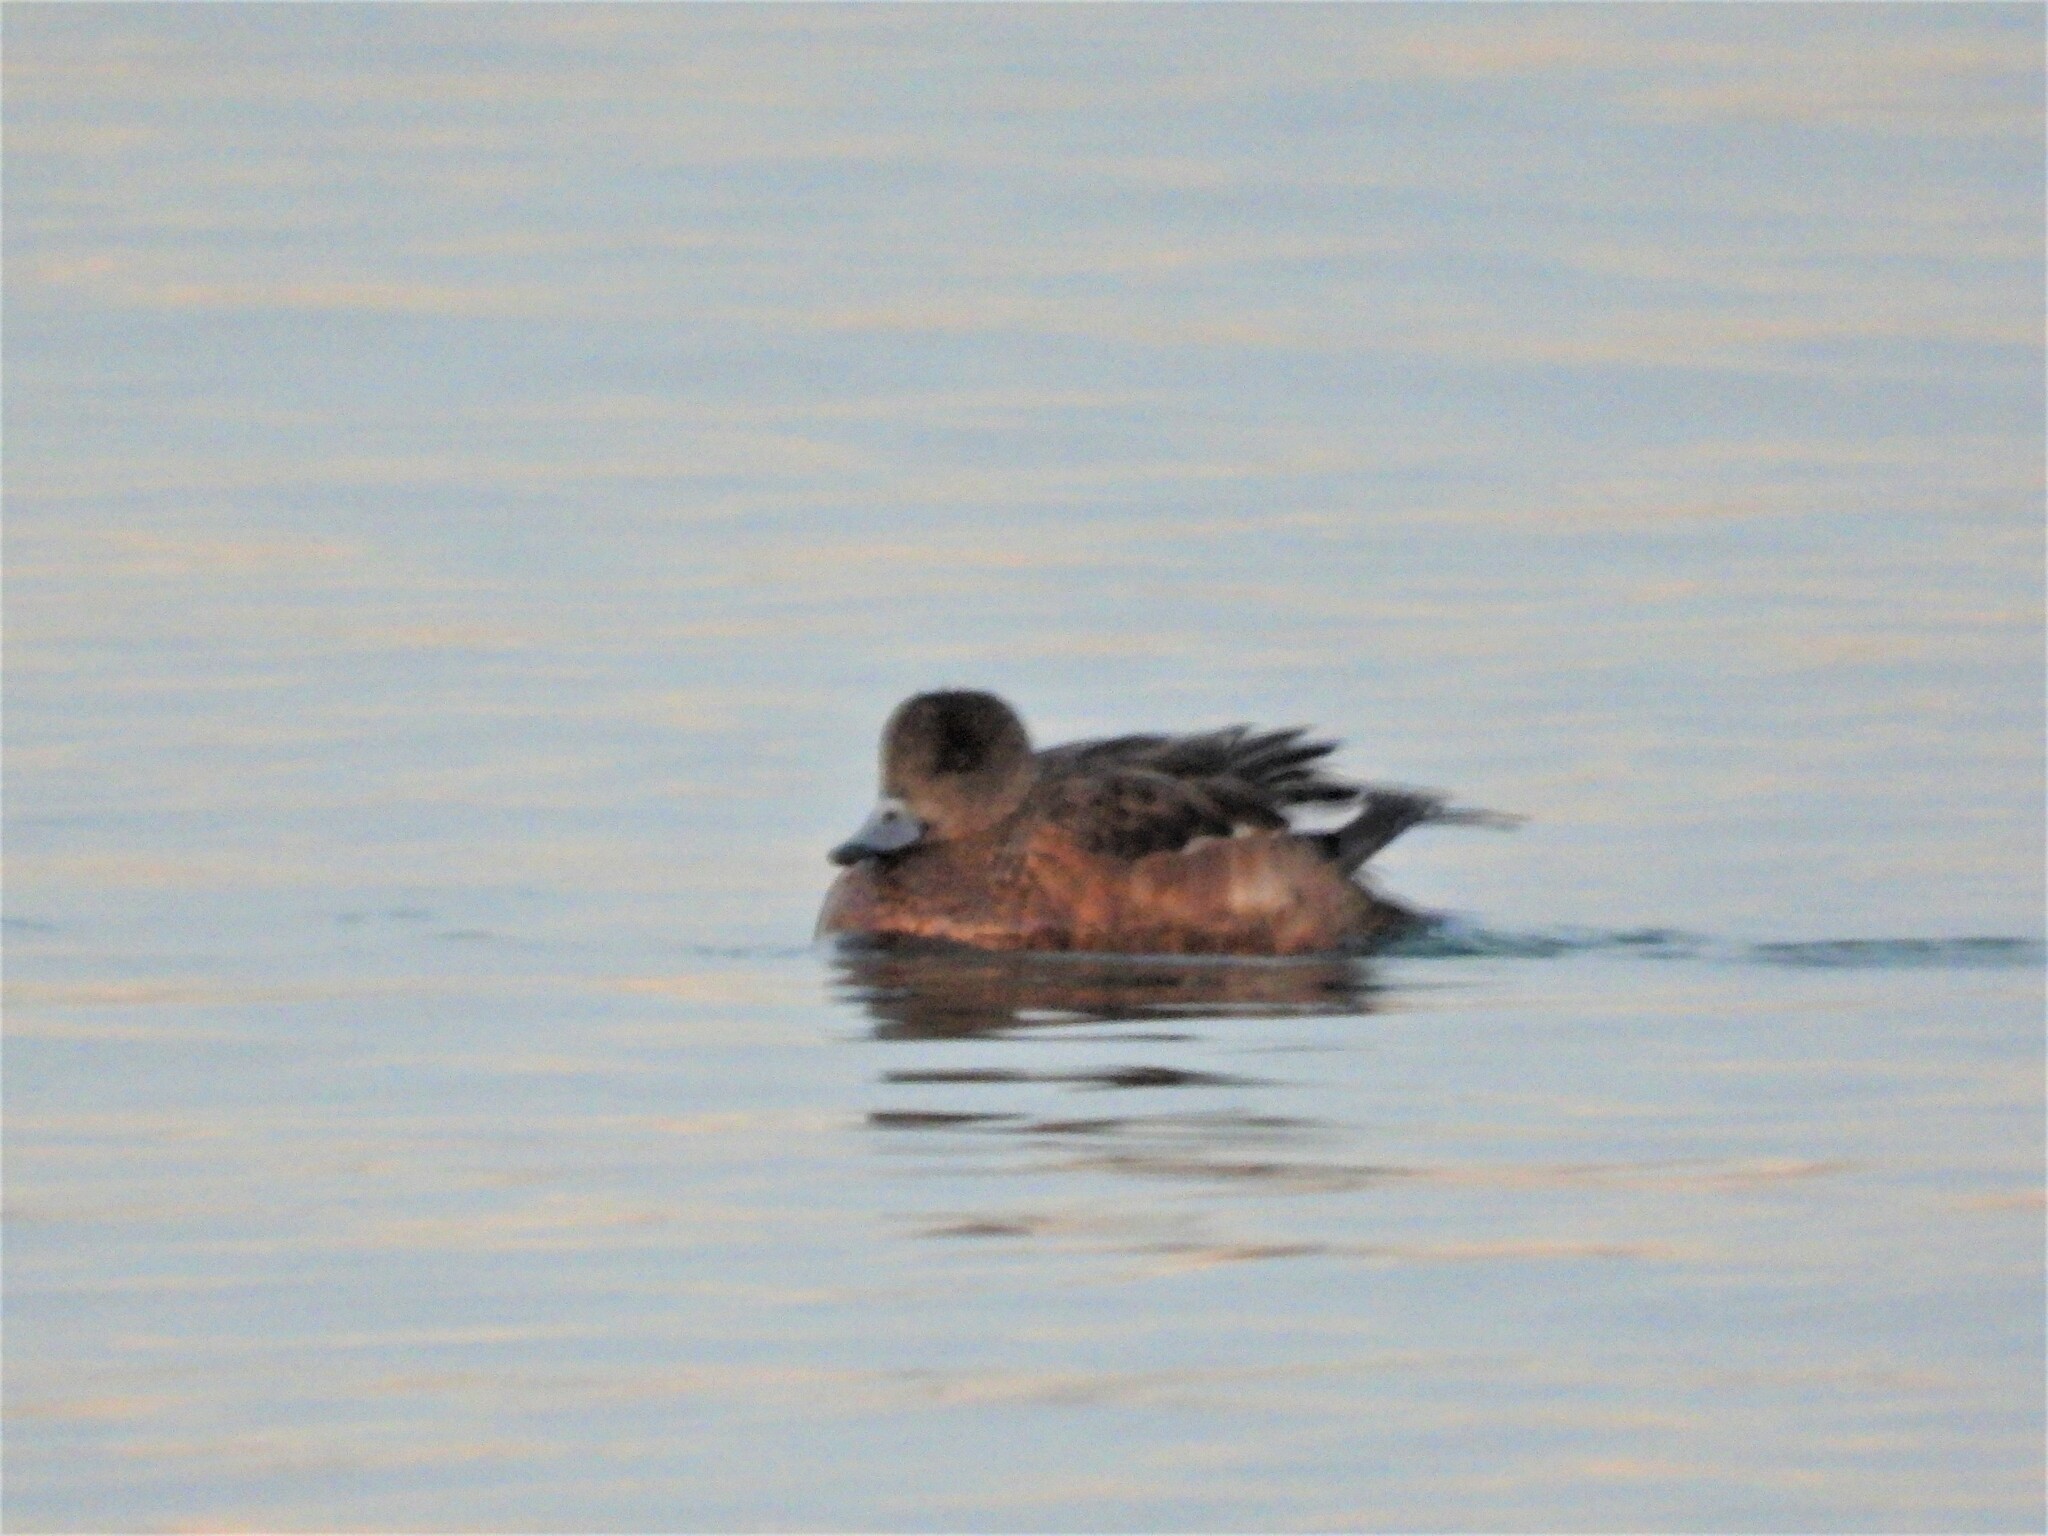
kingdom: Animalia
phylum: Chordata
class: Aves
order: Anseriformes
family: Anatidae
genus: Mareca
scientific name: Mareca americana
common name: American wigeon
